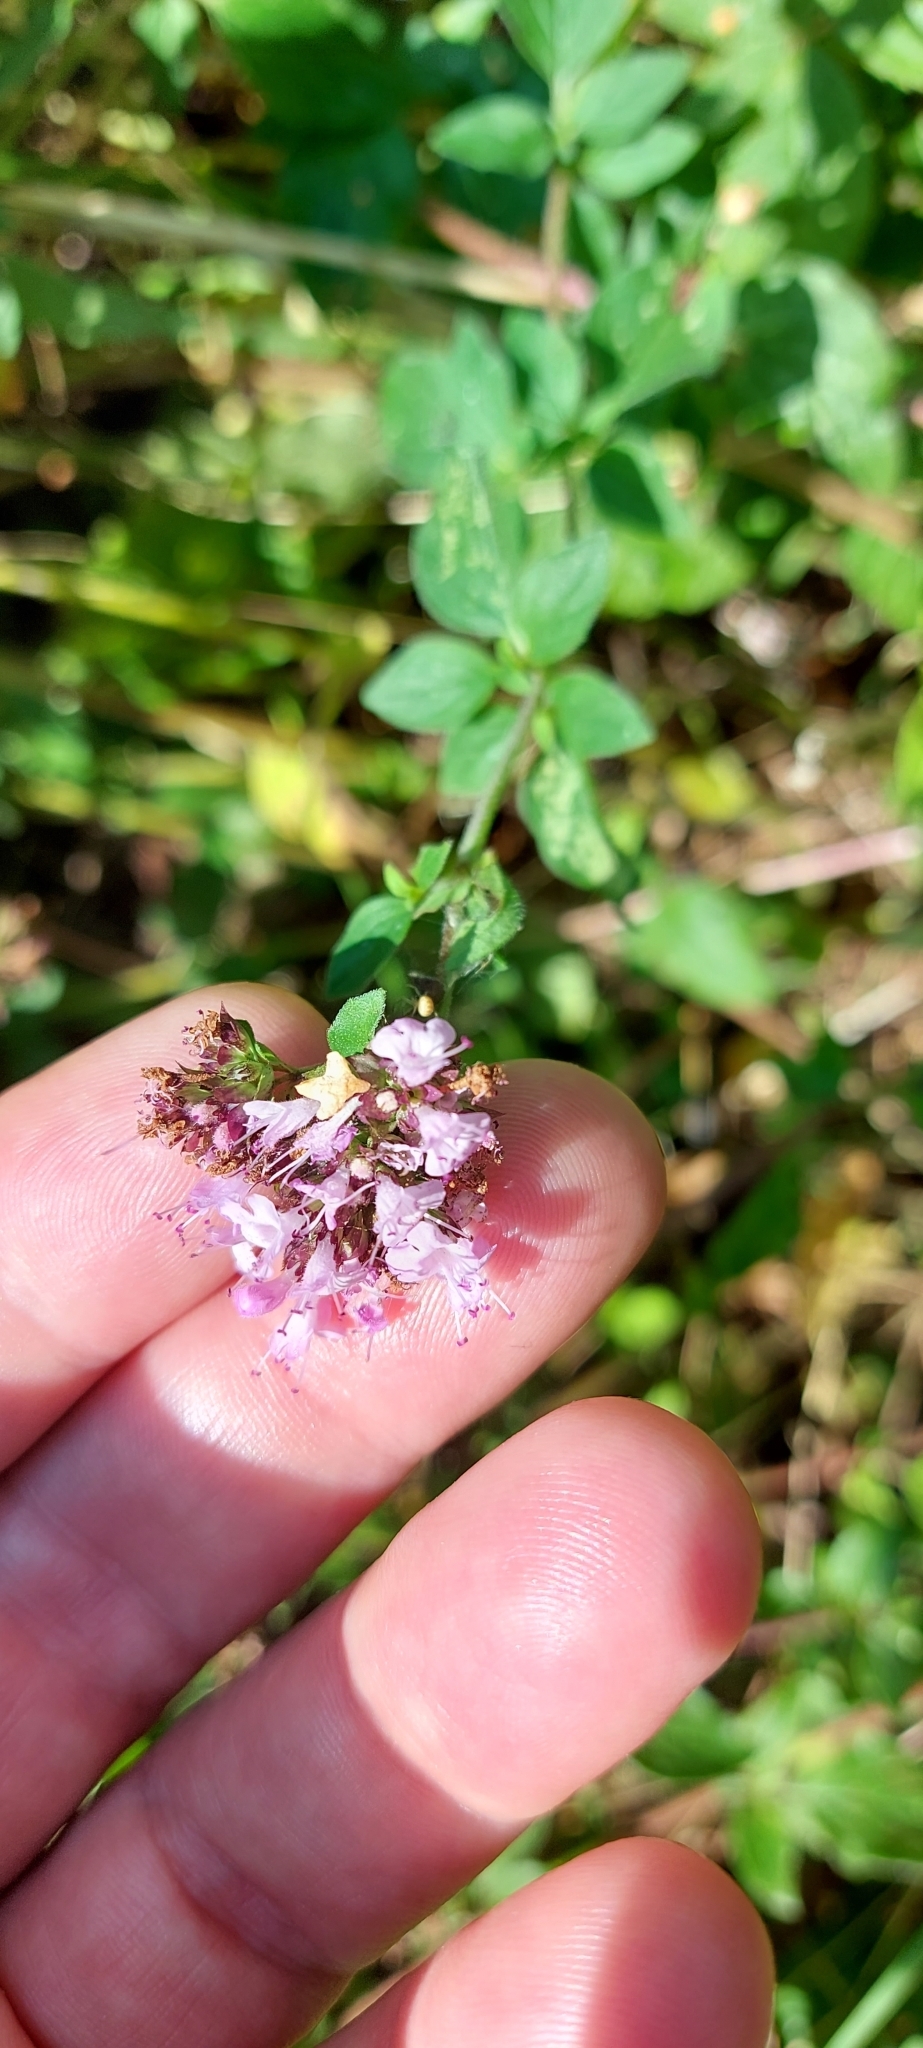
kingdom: Plantae
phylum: Tracheophyta
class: Magnoliopsida
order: Lamiales
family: Lamiaceae
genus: Origanum
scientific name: Origanum vulgare
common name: Wild marjoram
